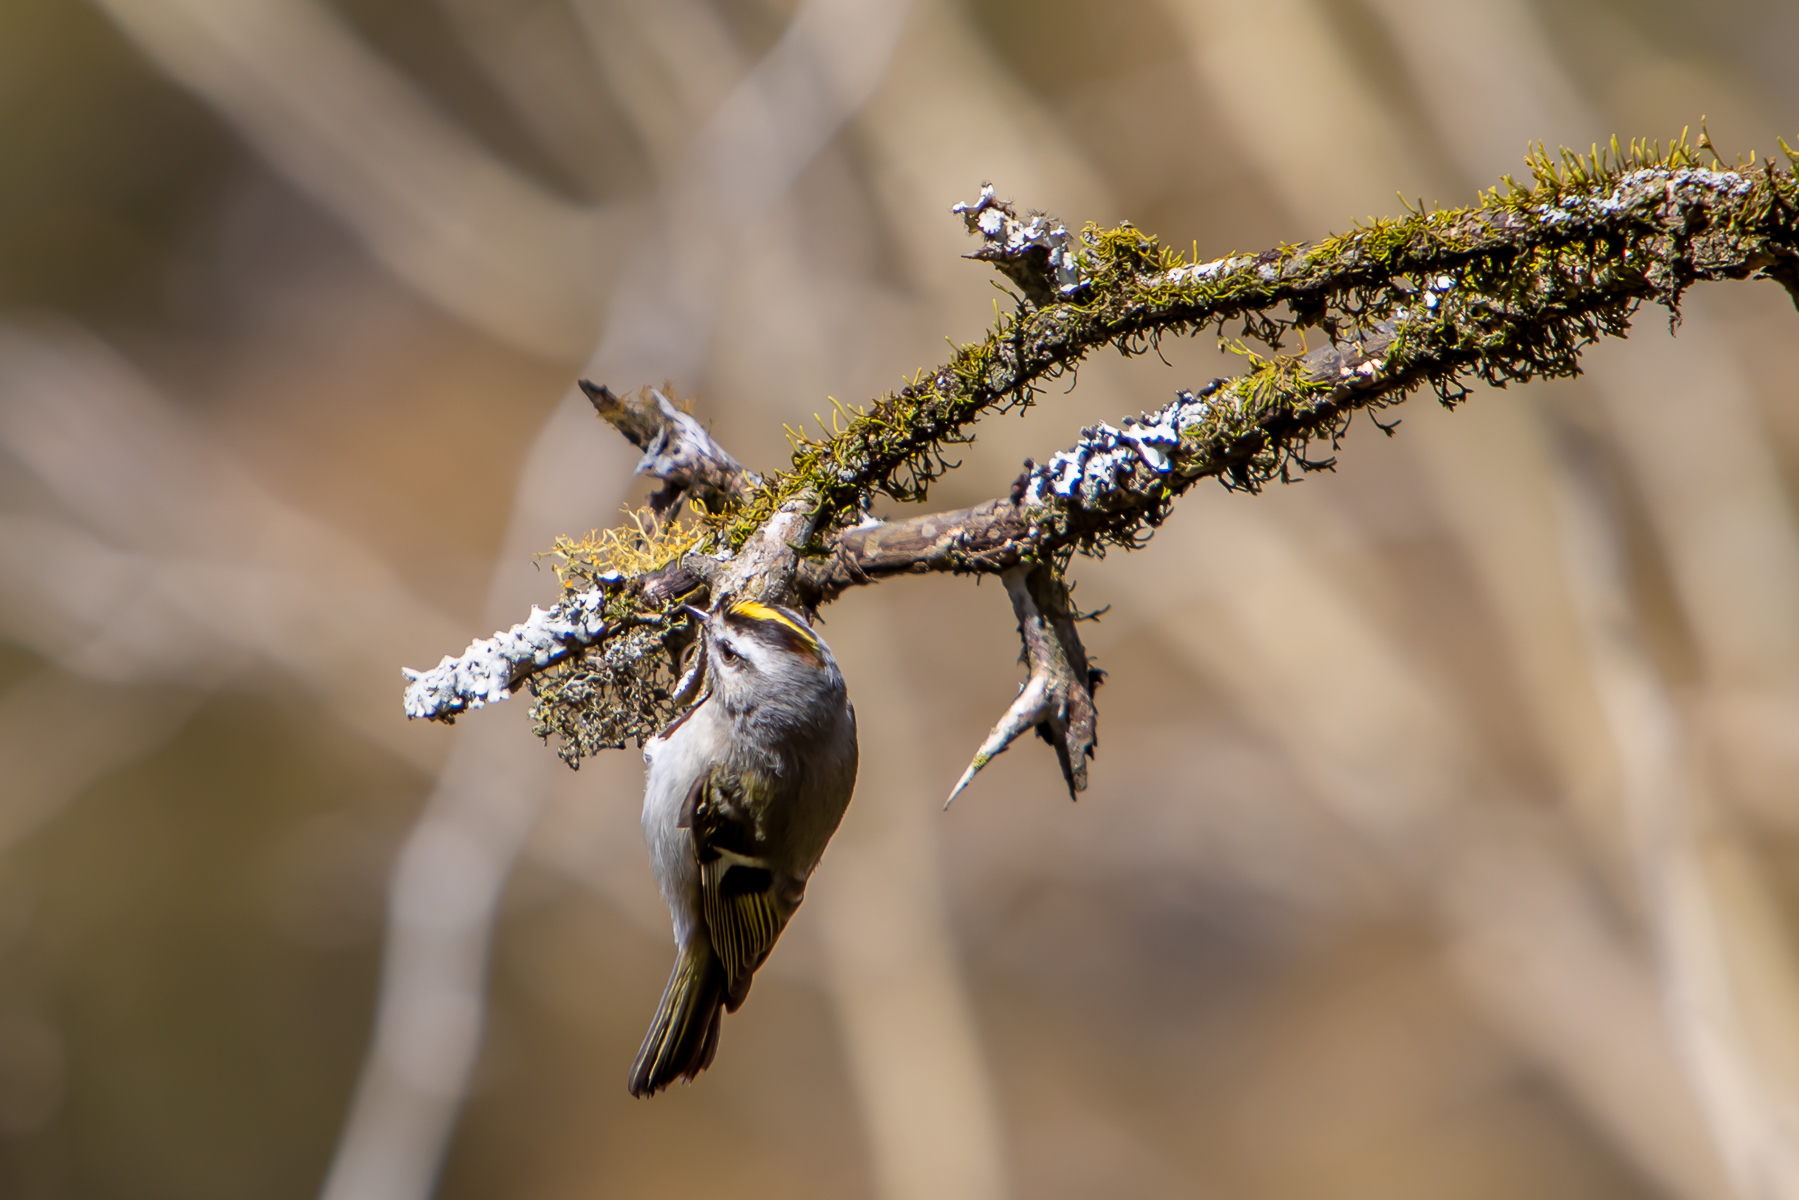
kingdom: Animalia
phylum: Chordata
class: Aves
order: Passeriformes
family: Regulidae
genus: Regulus
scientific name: Regulus satrapa
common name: Golden-crowned kinglet
